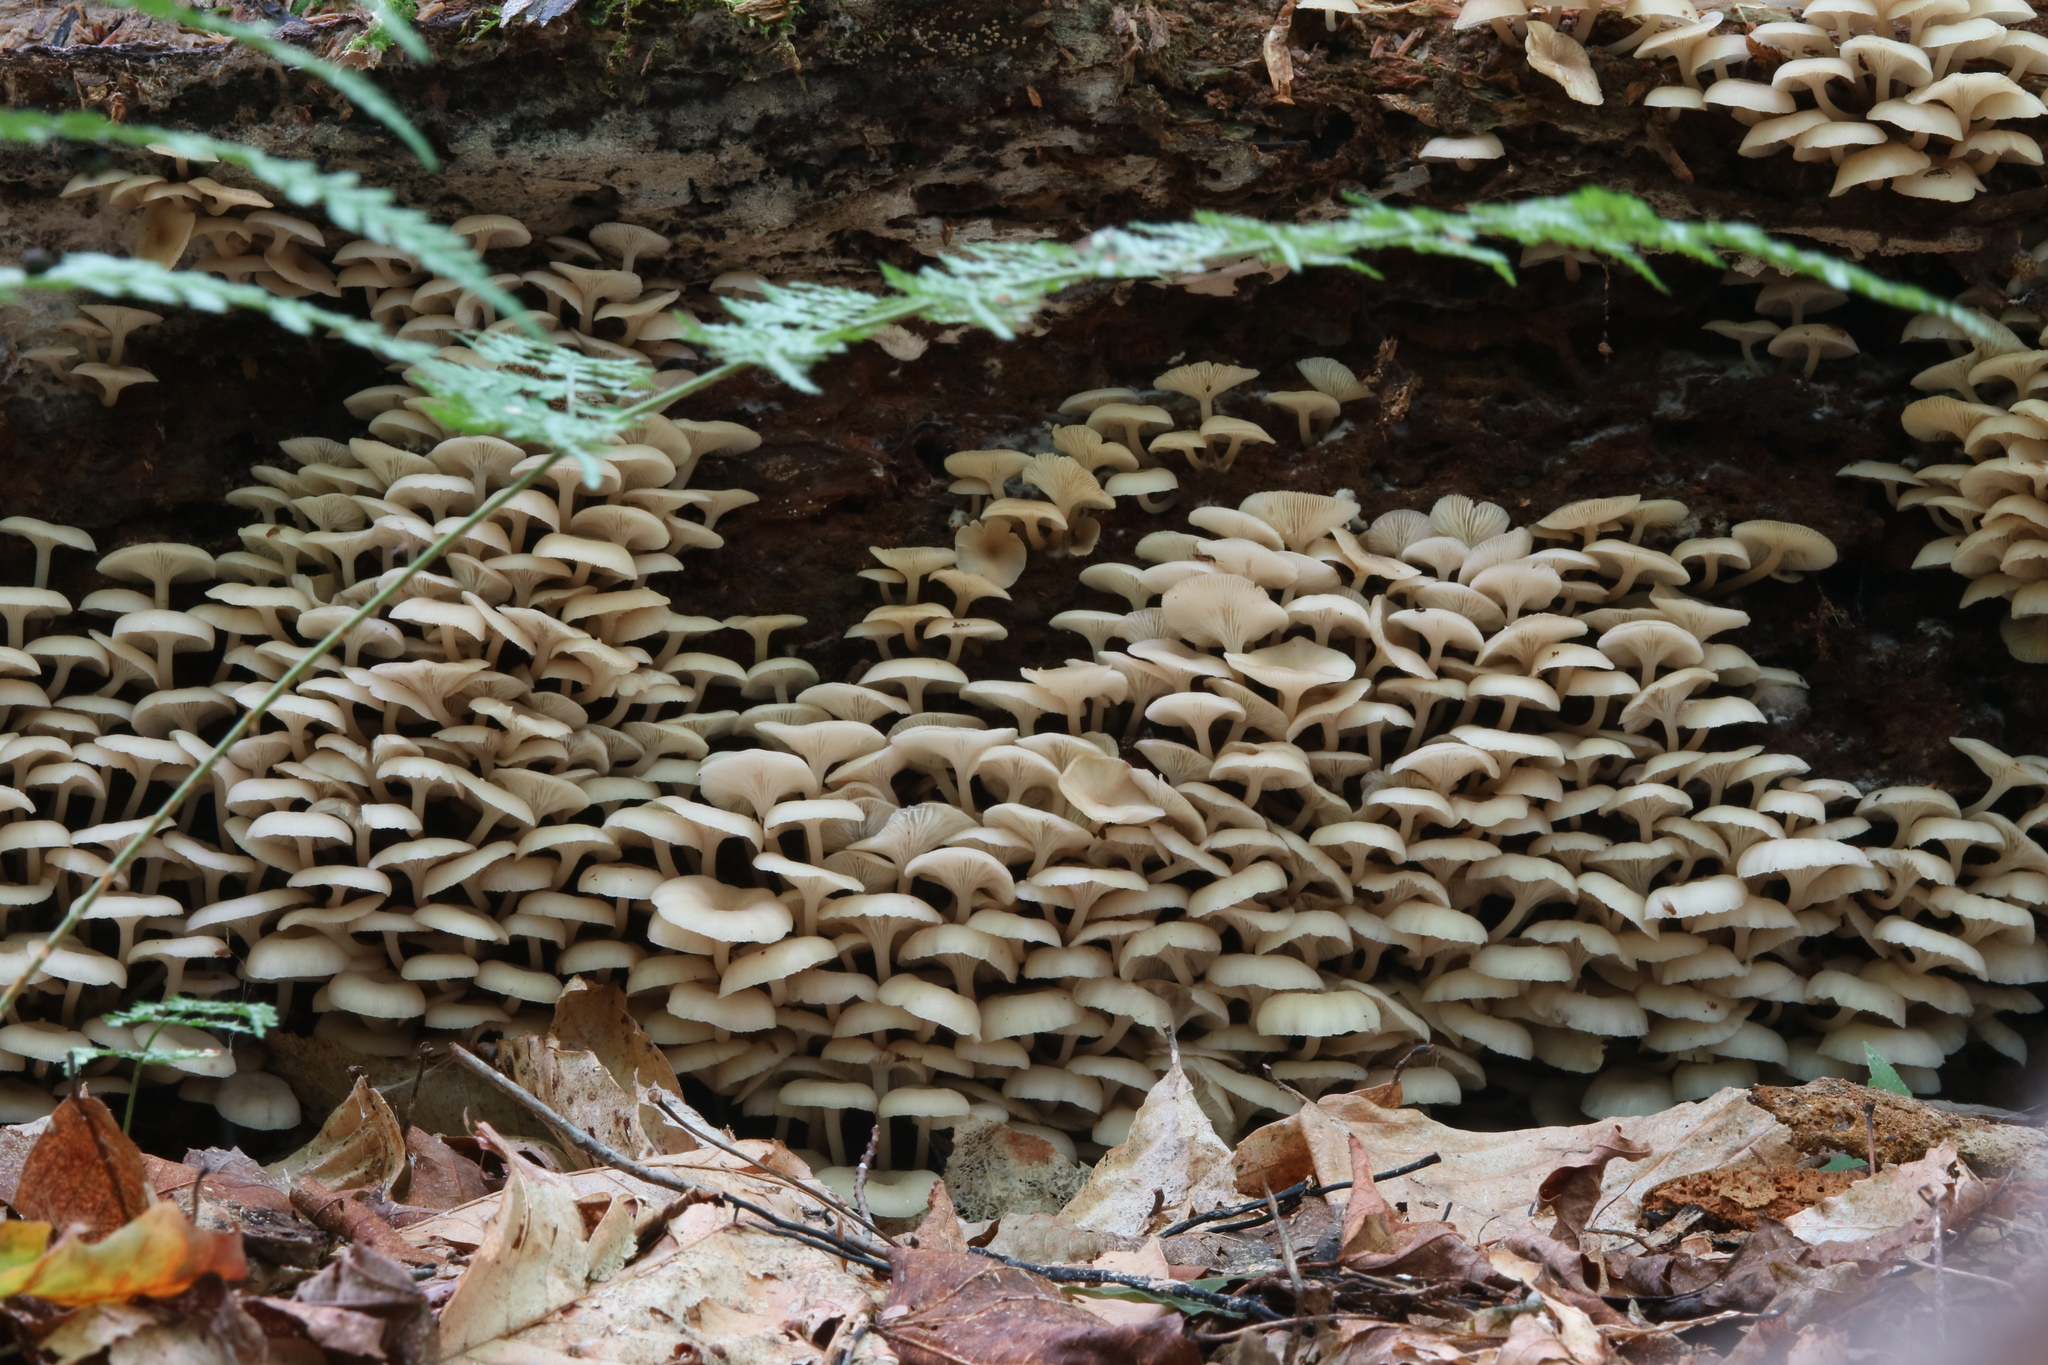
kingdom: Fungi
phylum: Basidiomycota
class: Agaricomycetes
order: Agaricales
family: Marasmiaceae
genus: Clitocybula
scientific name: Clitocybula oculus
